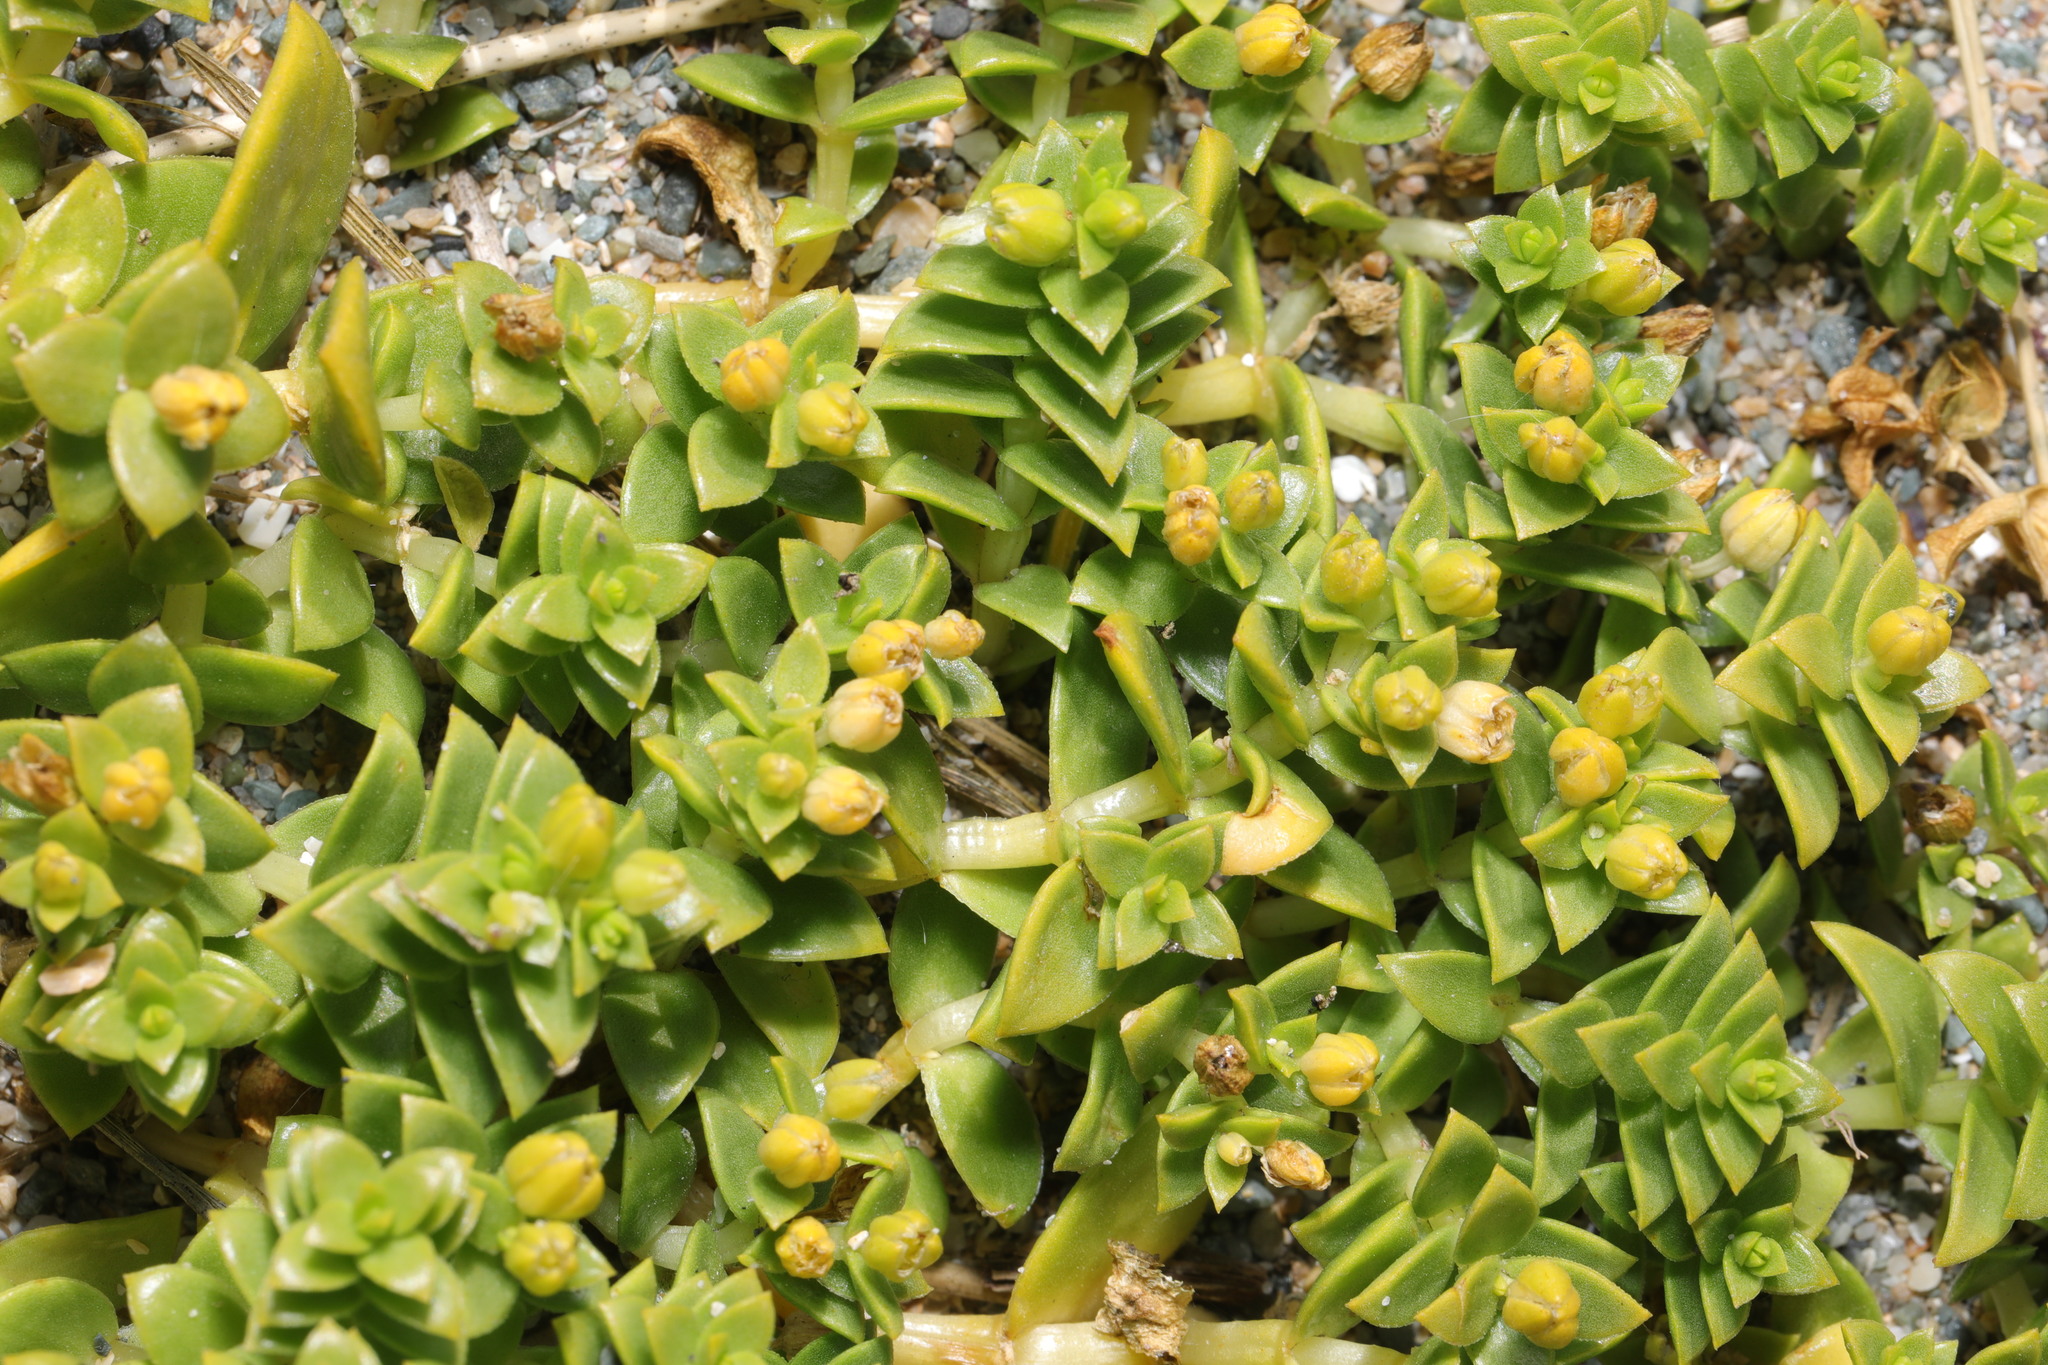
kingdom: Plantae
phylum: Tracheophyta
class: Magnoliopsida
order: Caryophyllales
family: Caryophyllaceae
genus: Honckenya
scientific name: Honckenya peploides
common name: Sea sandwort
